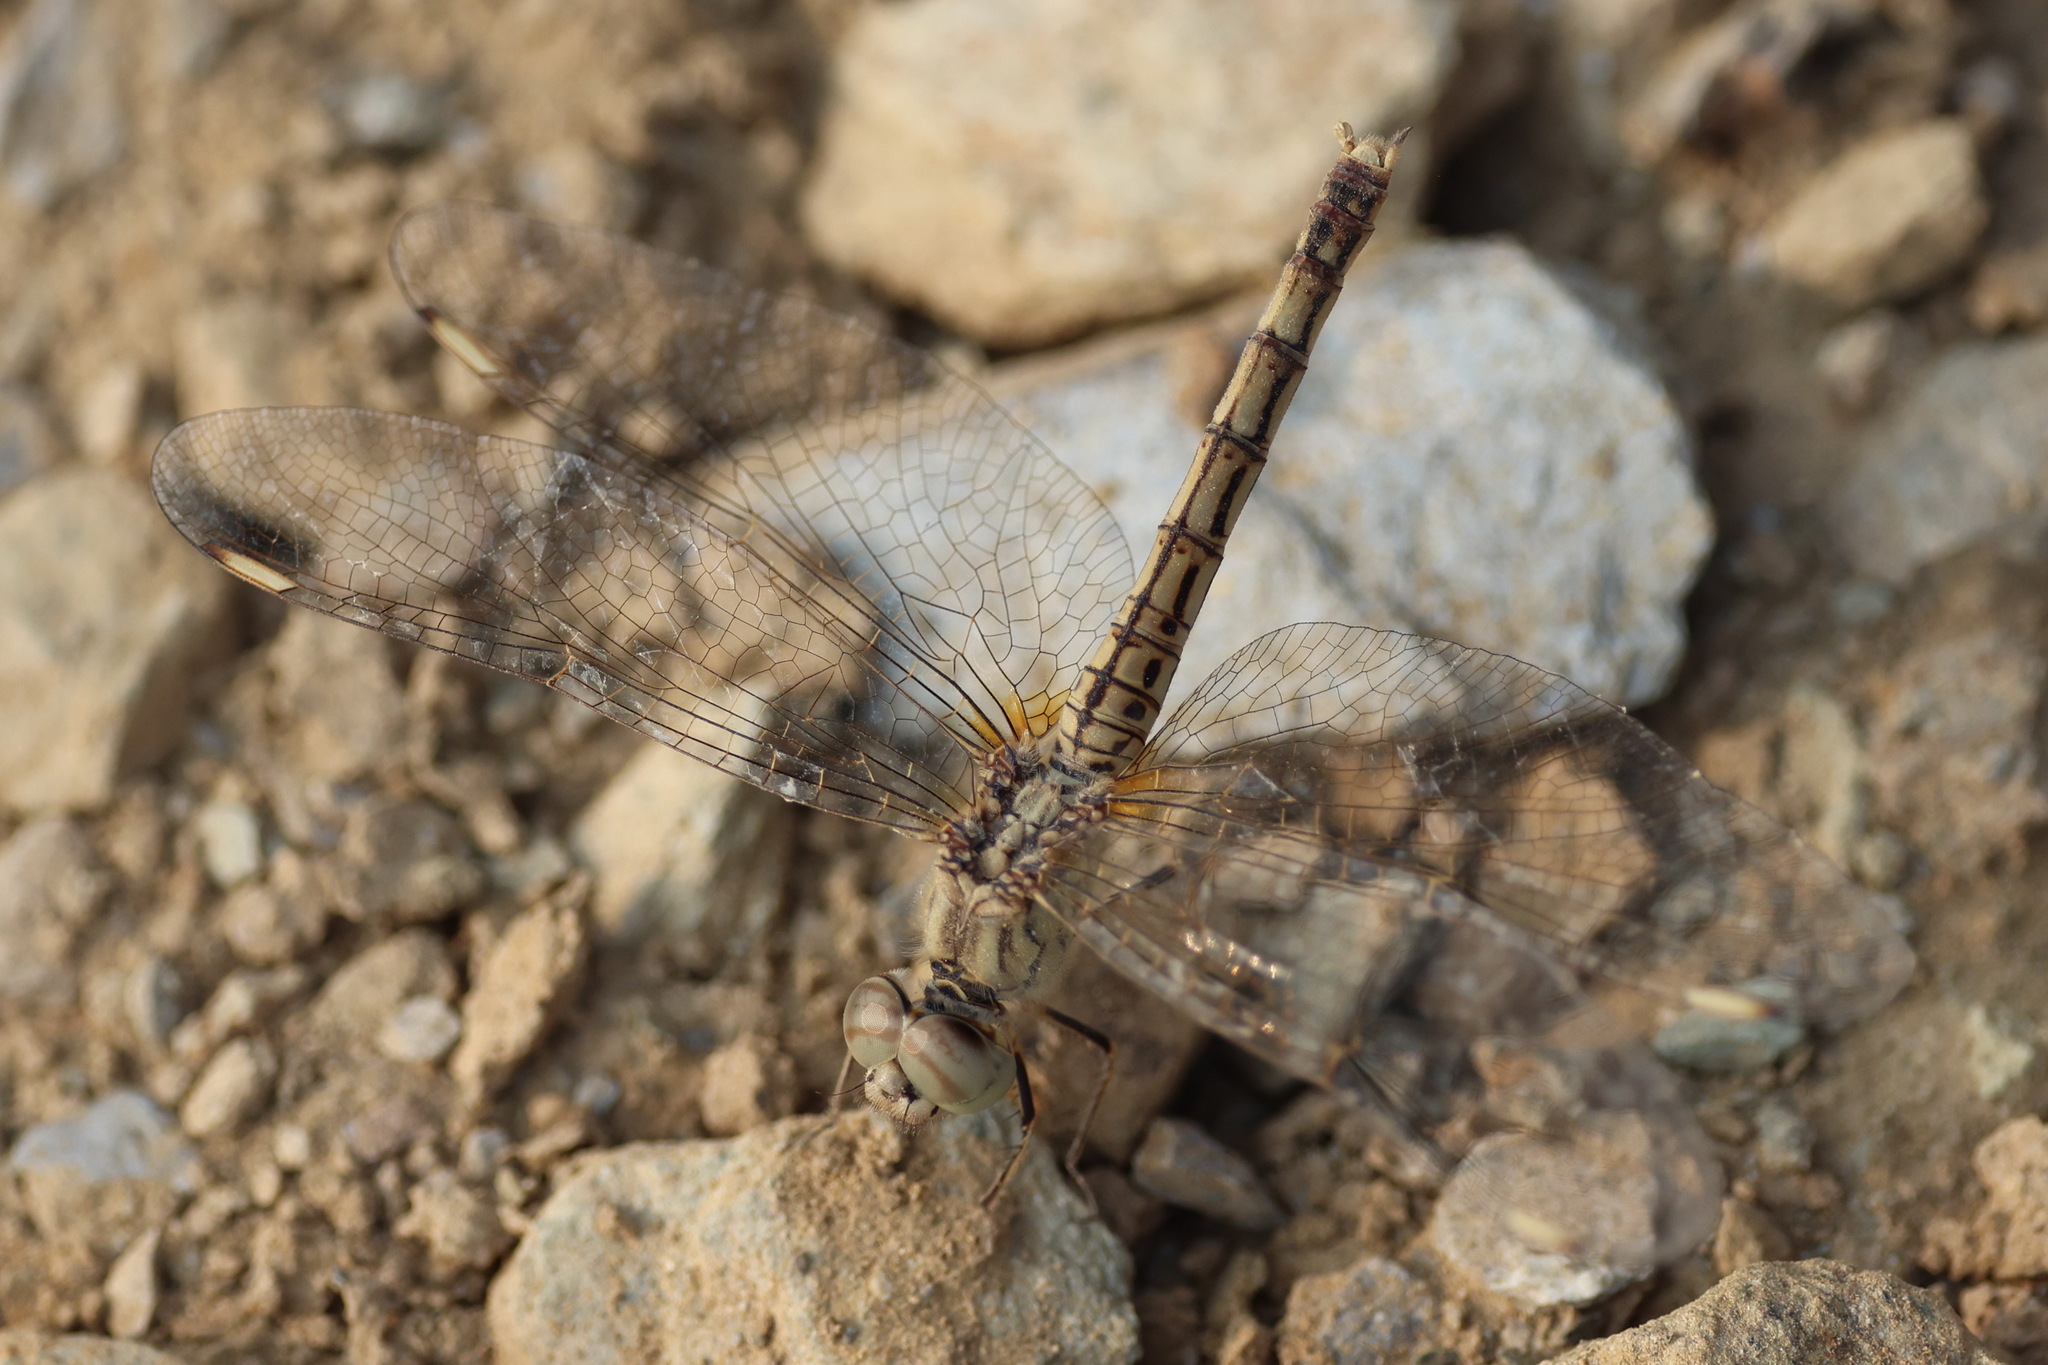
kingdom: Animalia
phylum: Arthropoda
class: Insecta
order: Odonata
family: Libellulidae
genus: Brachythemis
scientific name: Brachythemis impartita
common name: Banded groundling
